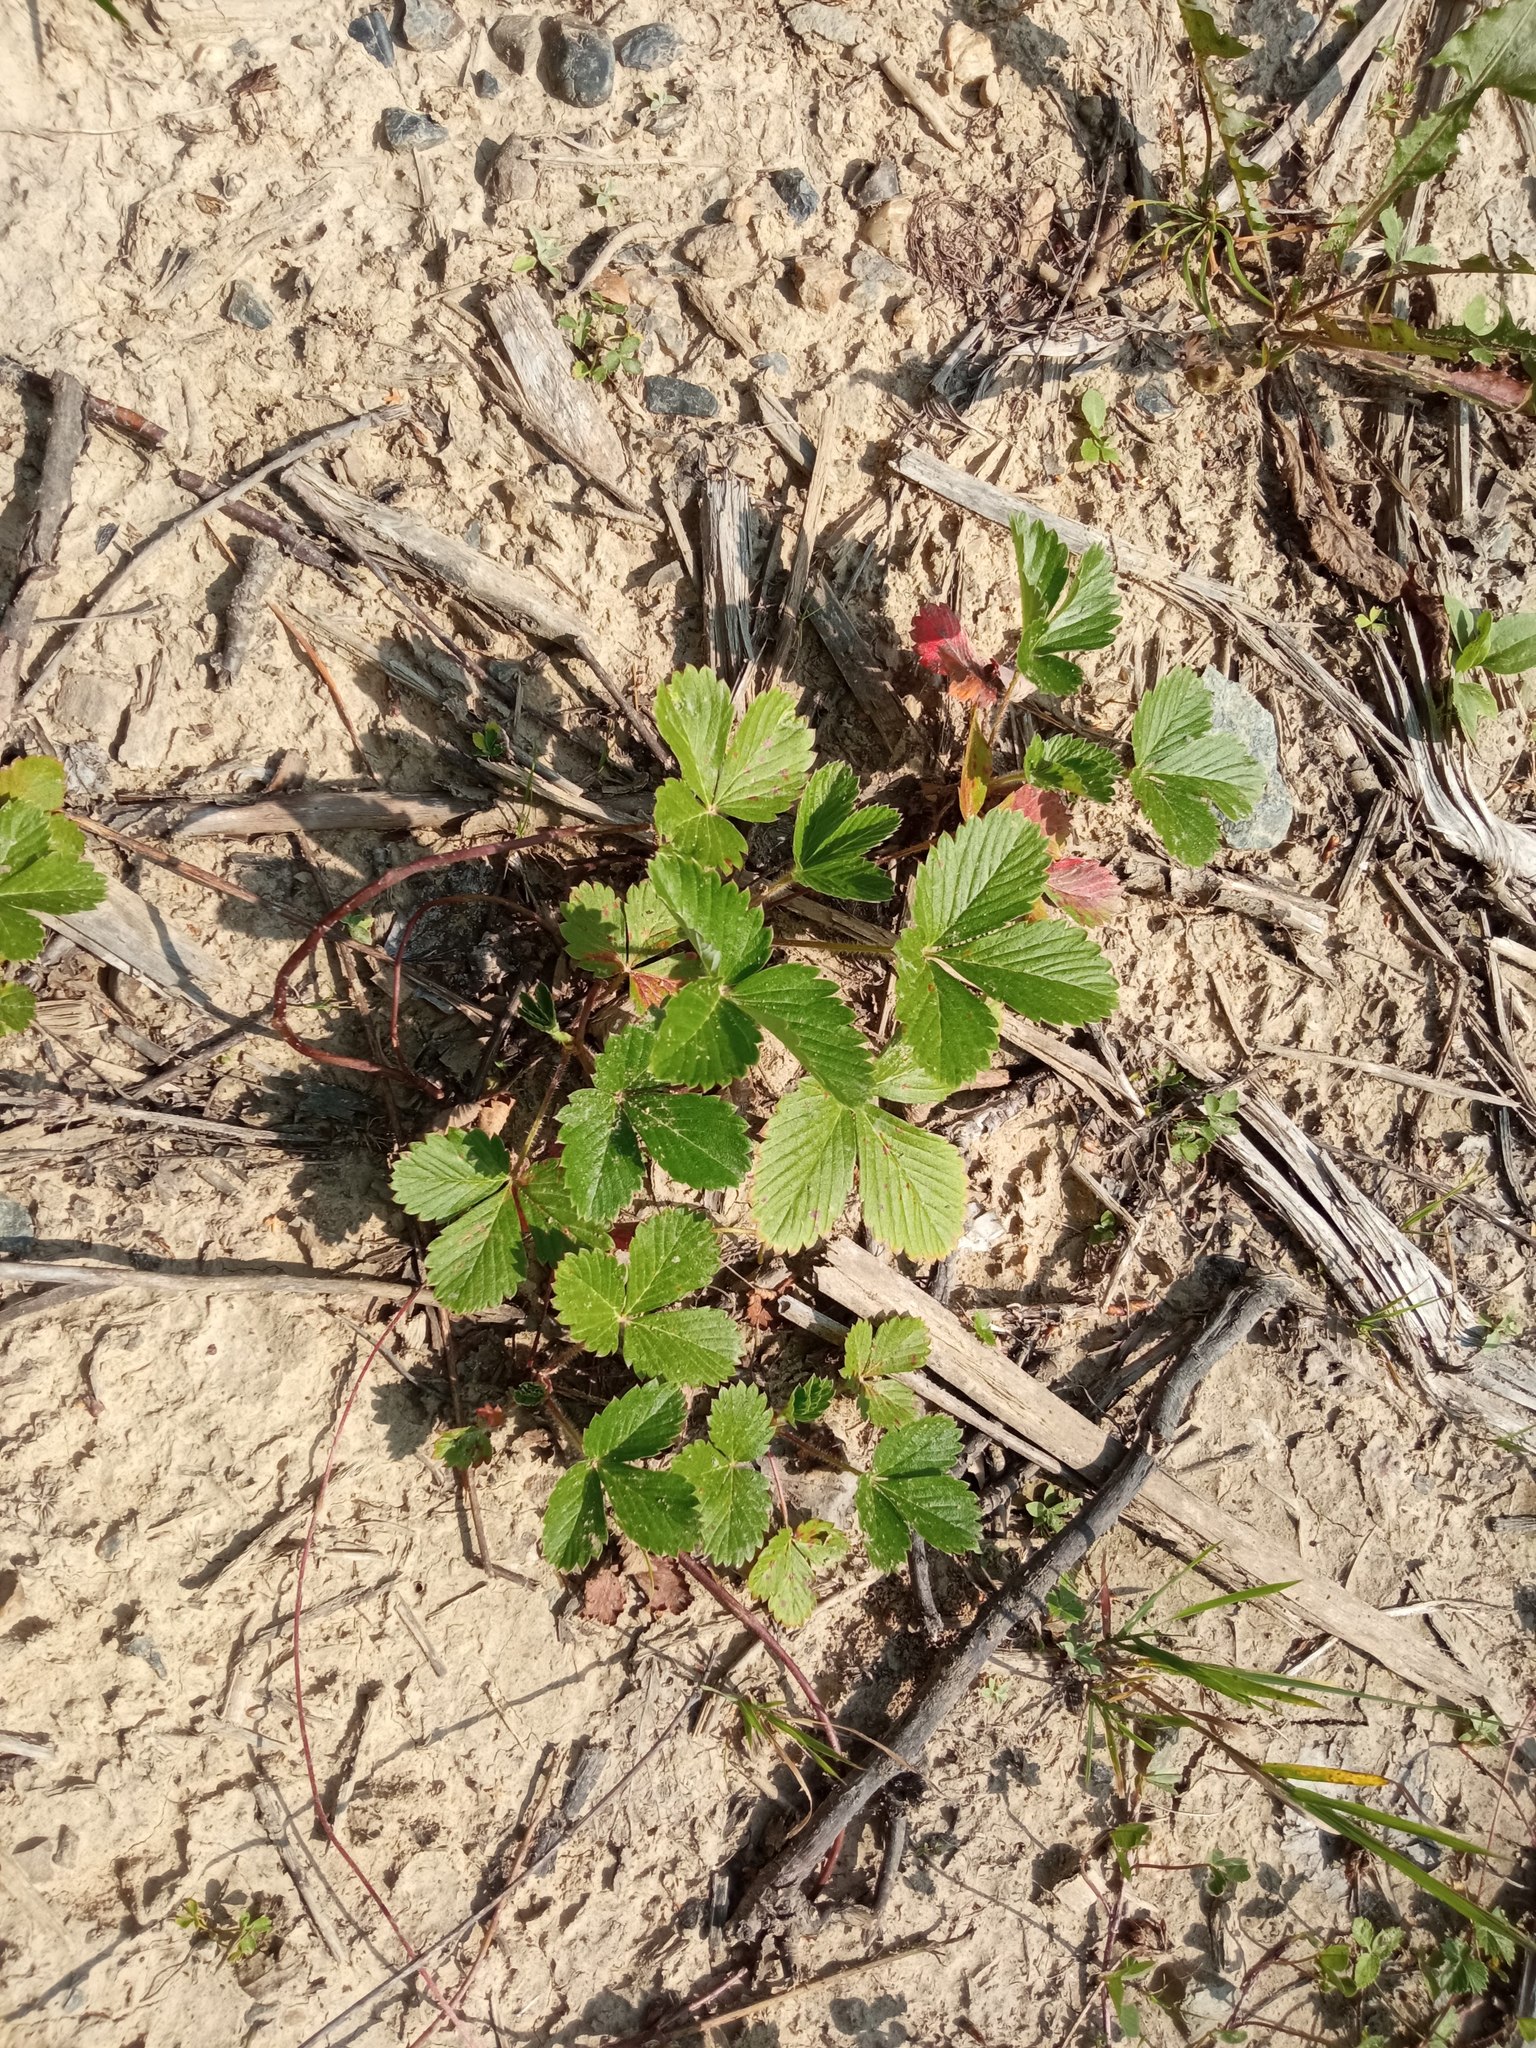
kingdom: Plantae
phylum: Tracheophyta
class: Magnoliopsida
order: Rosales
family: Rosaceae
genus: Fragaria
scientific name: Fragaria vesca
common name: Wild strawberry
